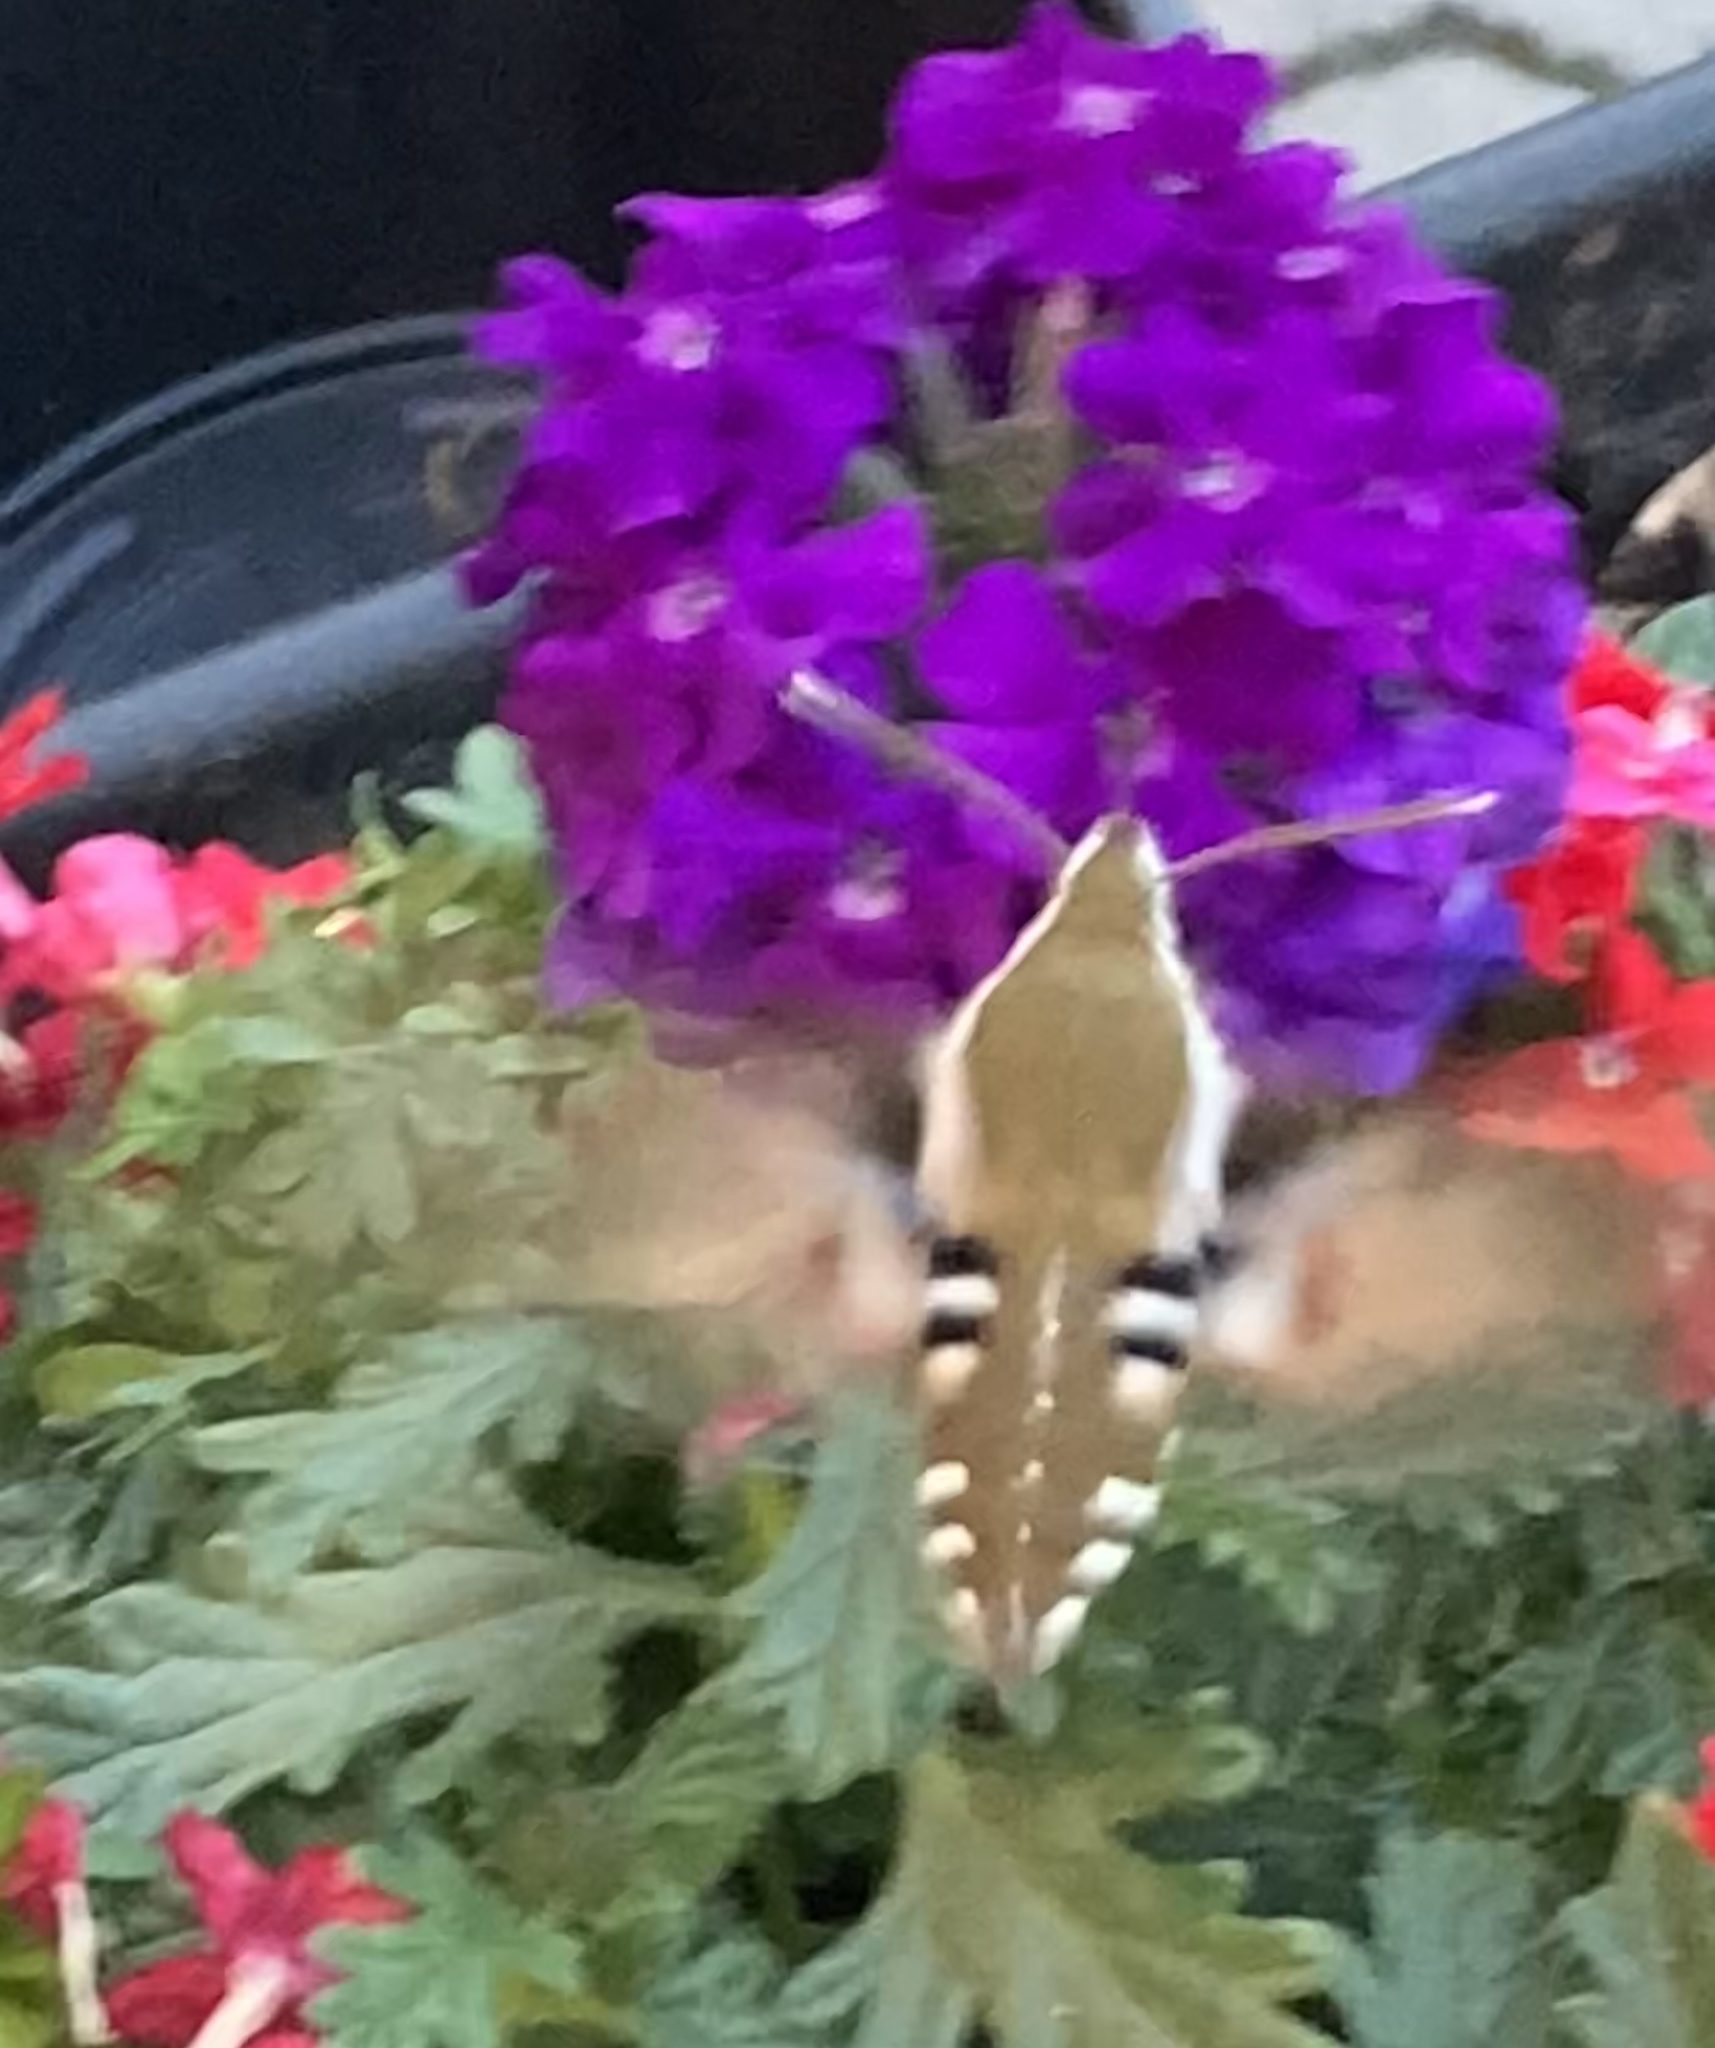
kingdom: Animalia
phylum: Arthropoda
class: Insecta
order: Lepidoptera
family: Sphingidae
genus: Hyles
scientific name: Hyles gallii
